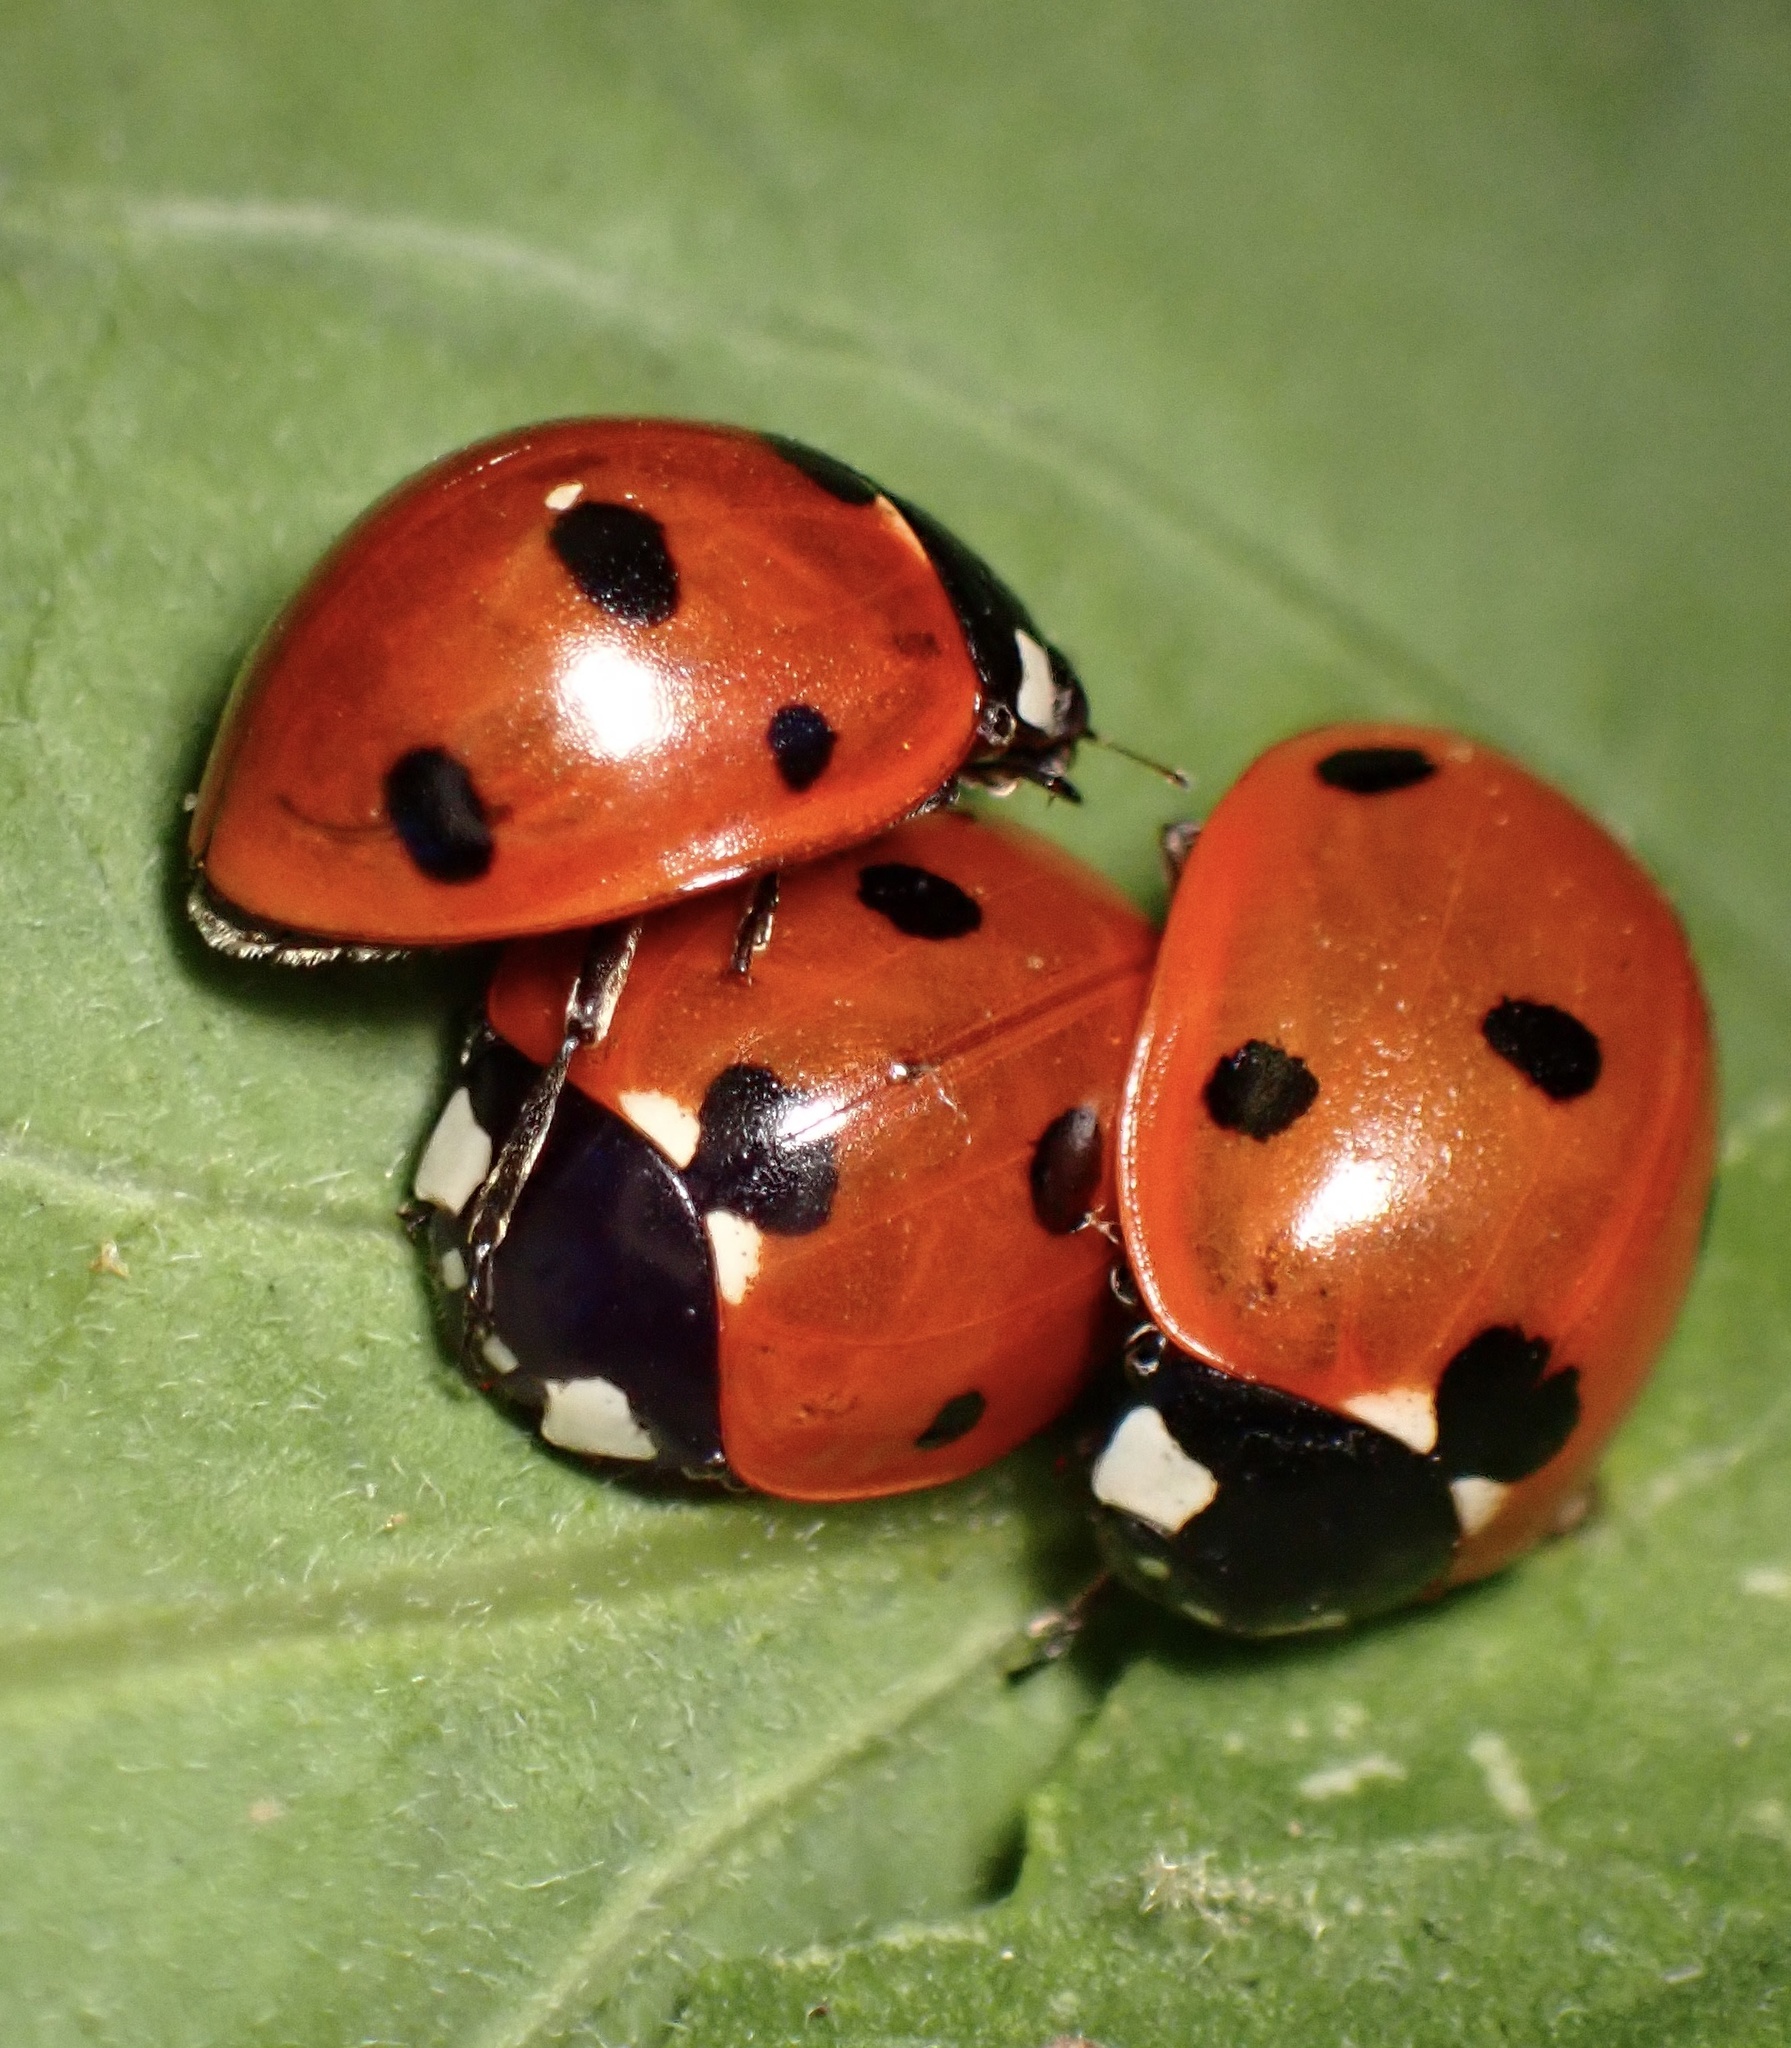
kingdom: Animalia
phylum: Arthropoda
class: Insecta
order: Coleoptera
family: Coccinellidae
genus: Coccinella
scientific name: Coccinella septempunctata
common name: Sevenspotted lady beetle
